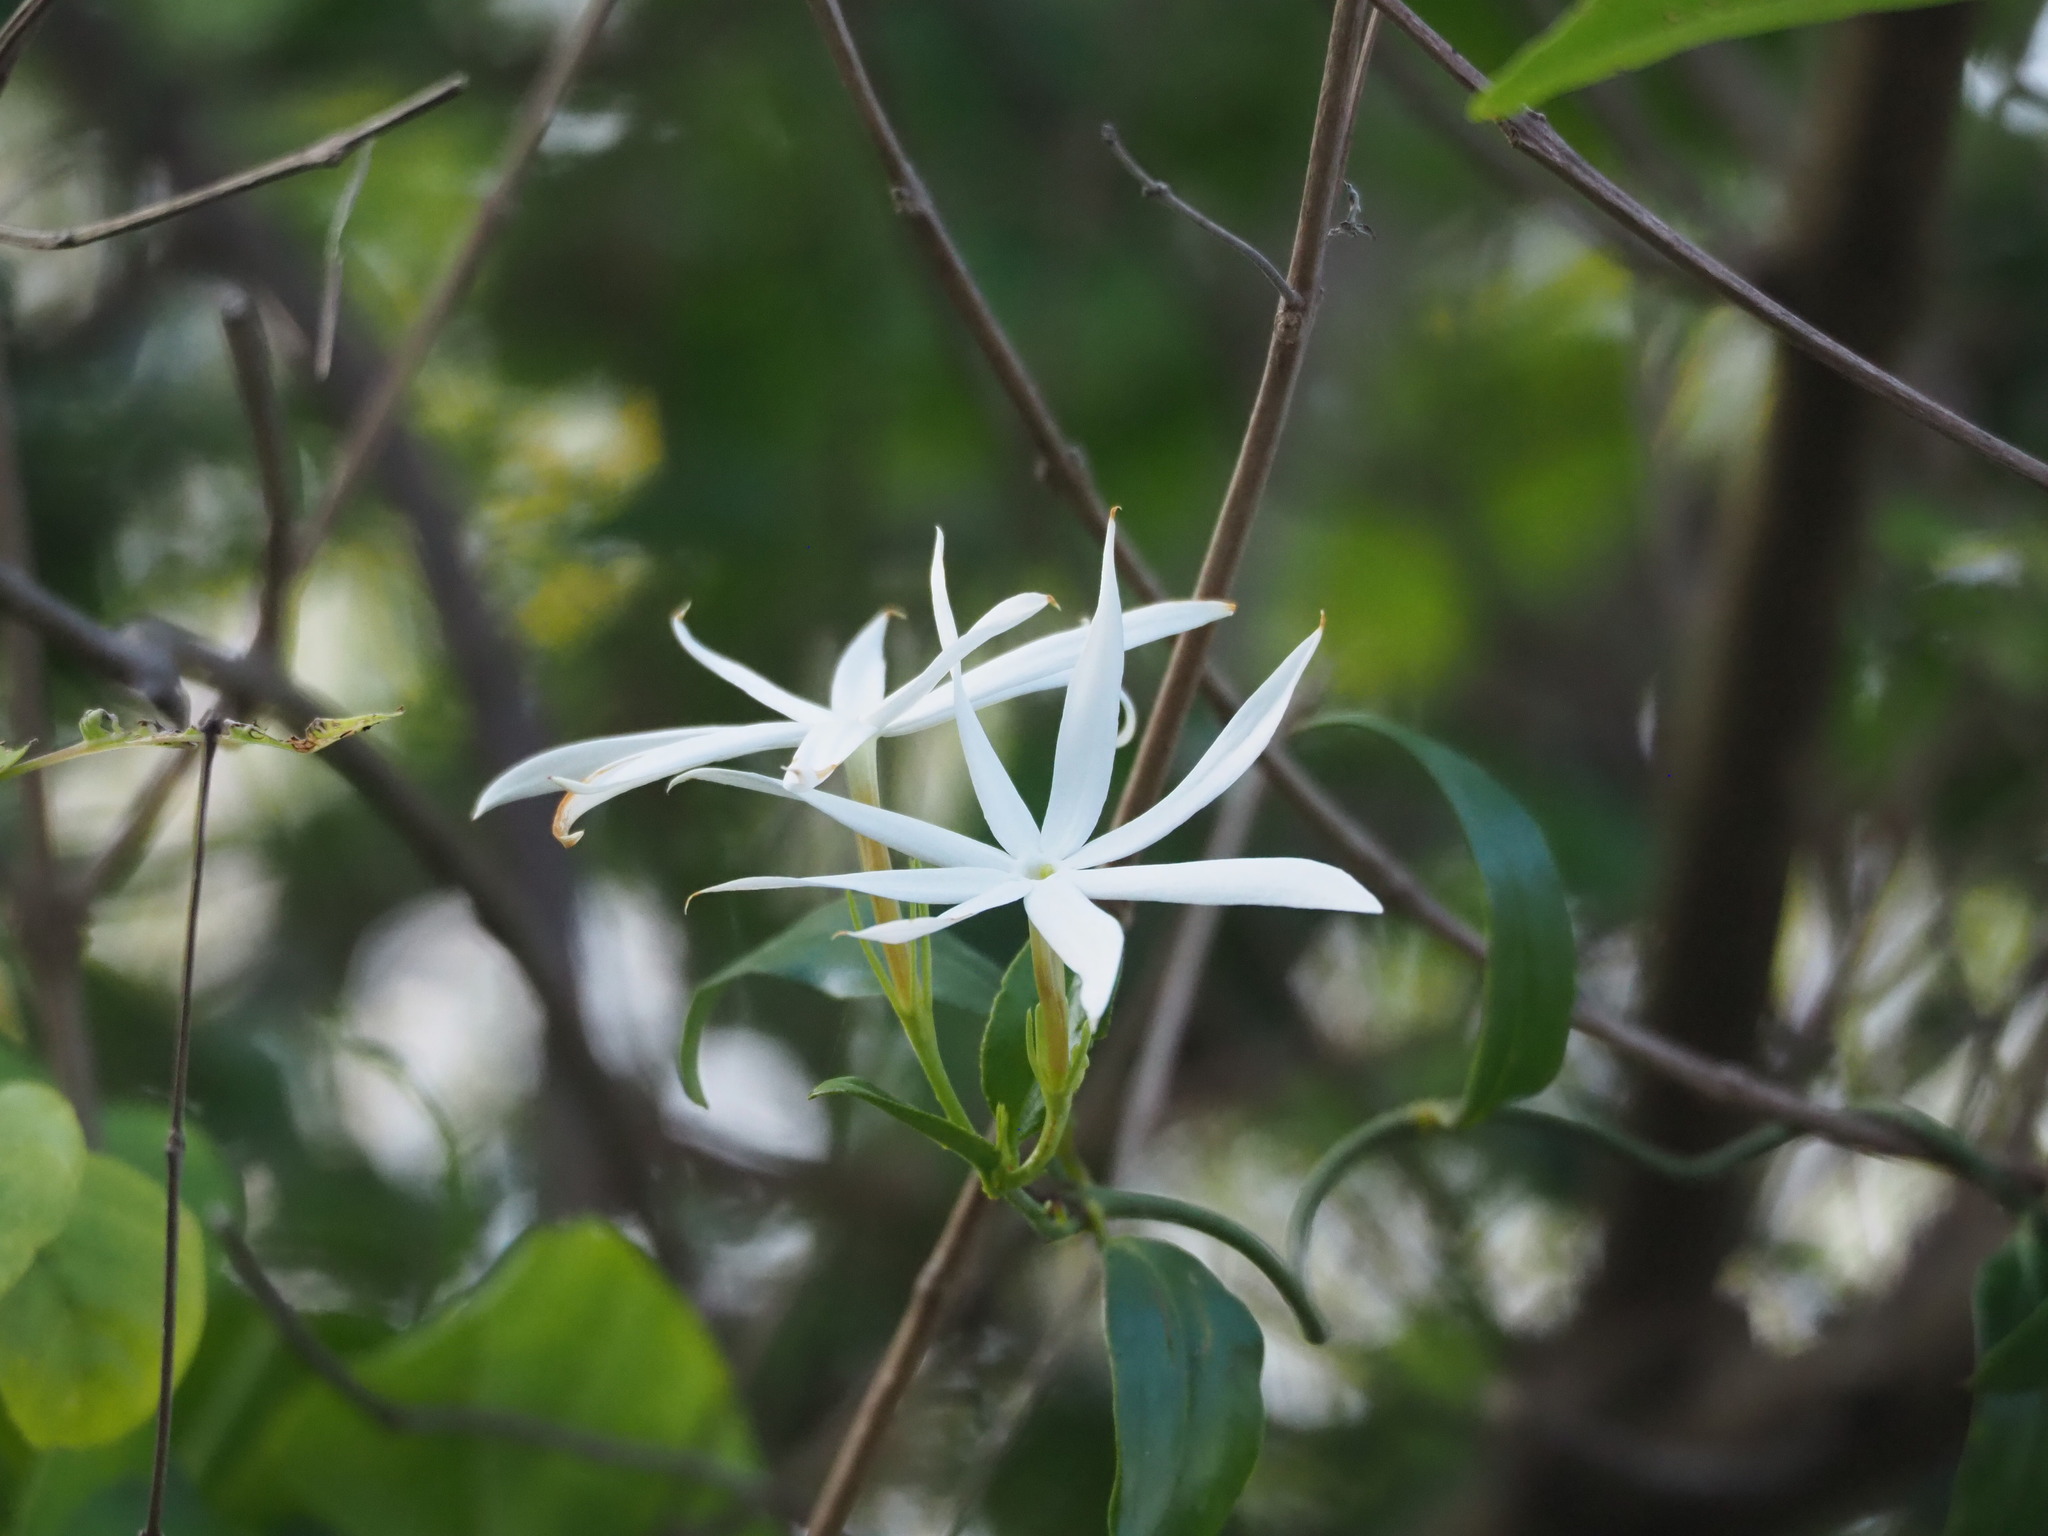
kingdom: Plantae
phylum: Tracheophyta
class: Magnoliopsida
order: Lamiales
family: Oleaceae
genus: Jasminum
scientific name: Jasminum nervosum
